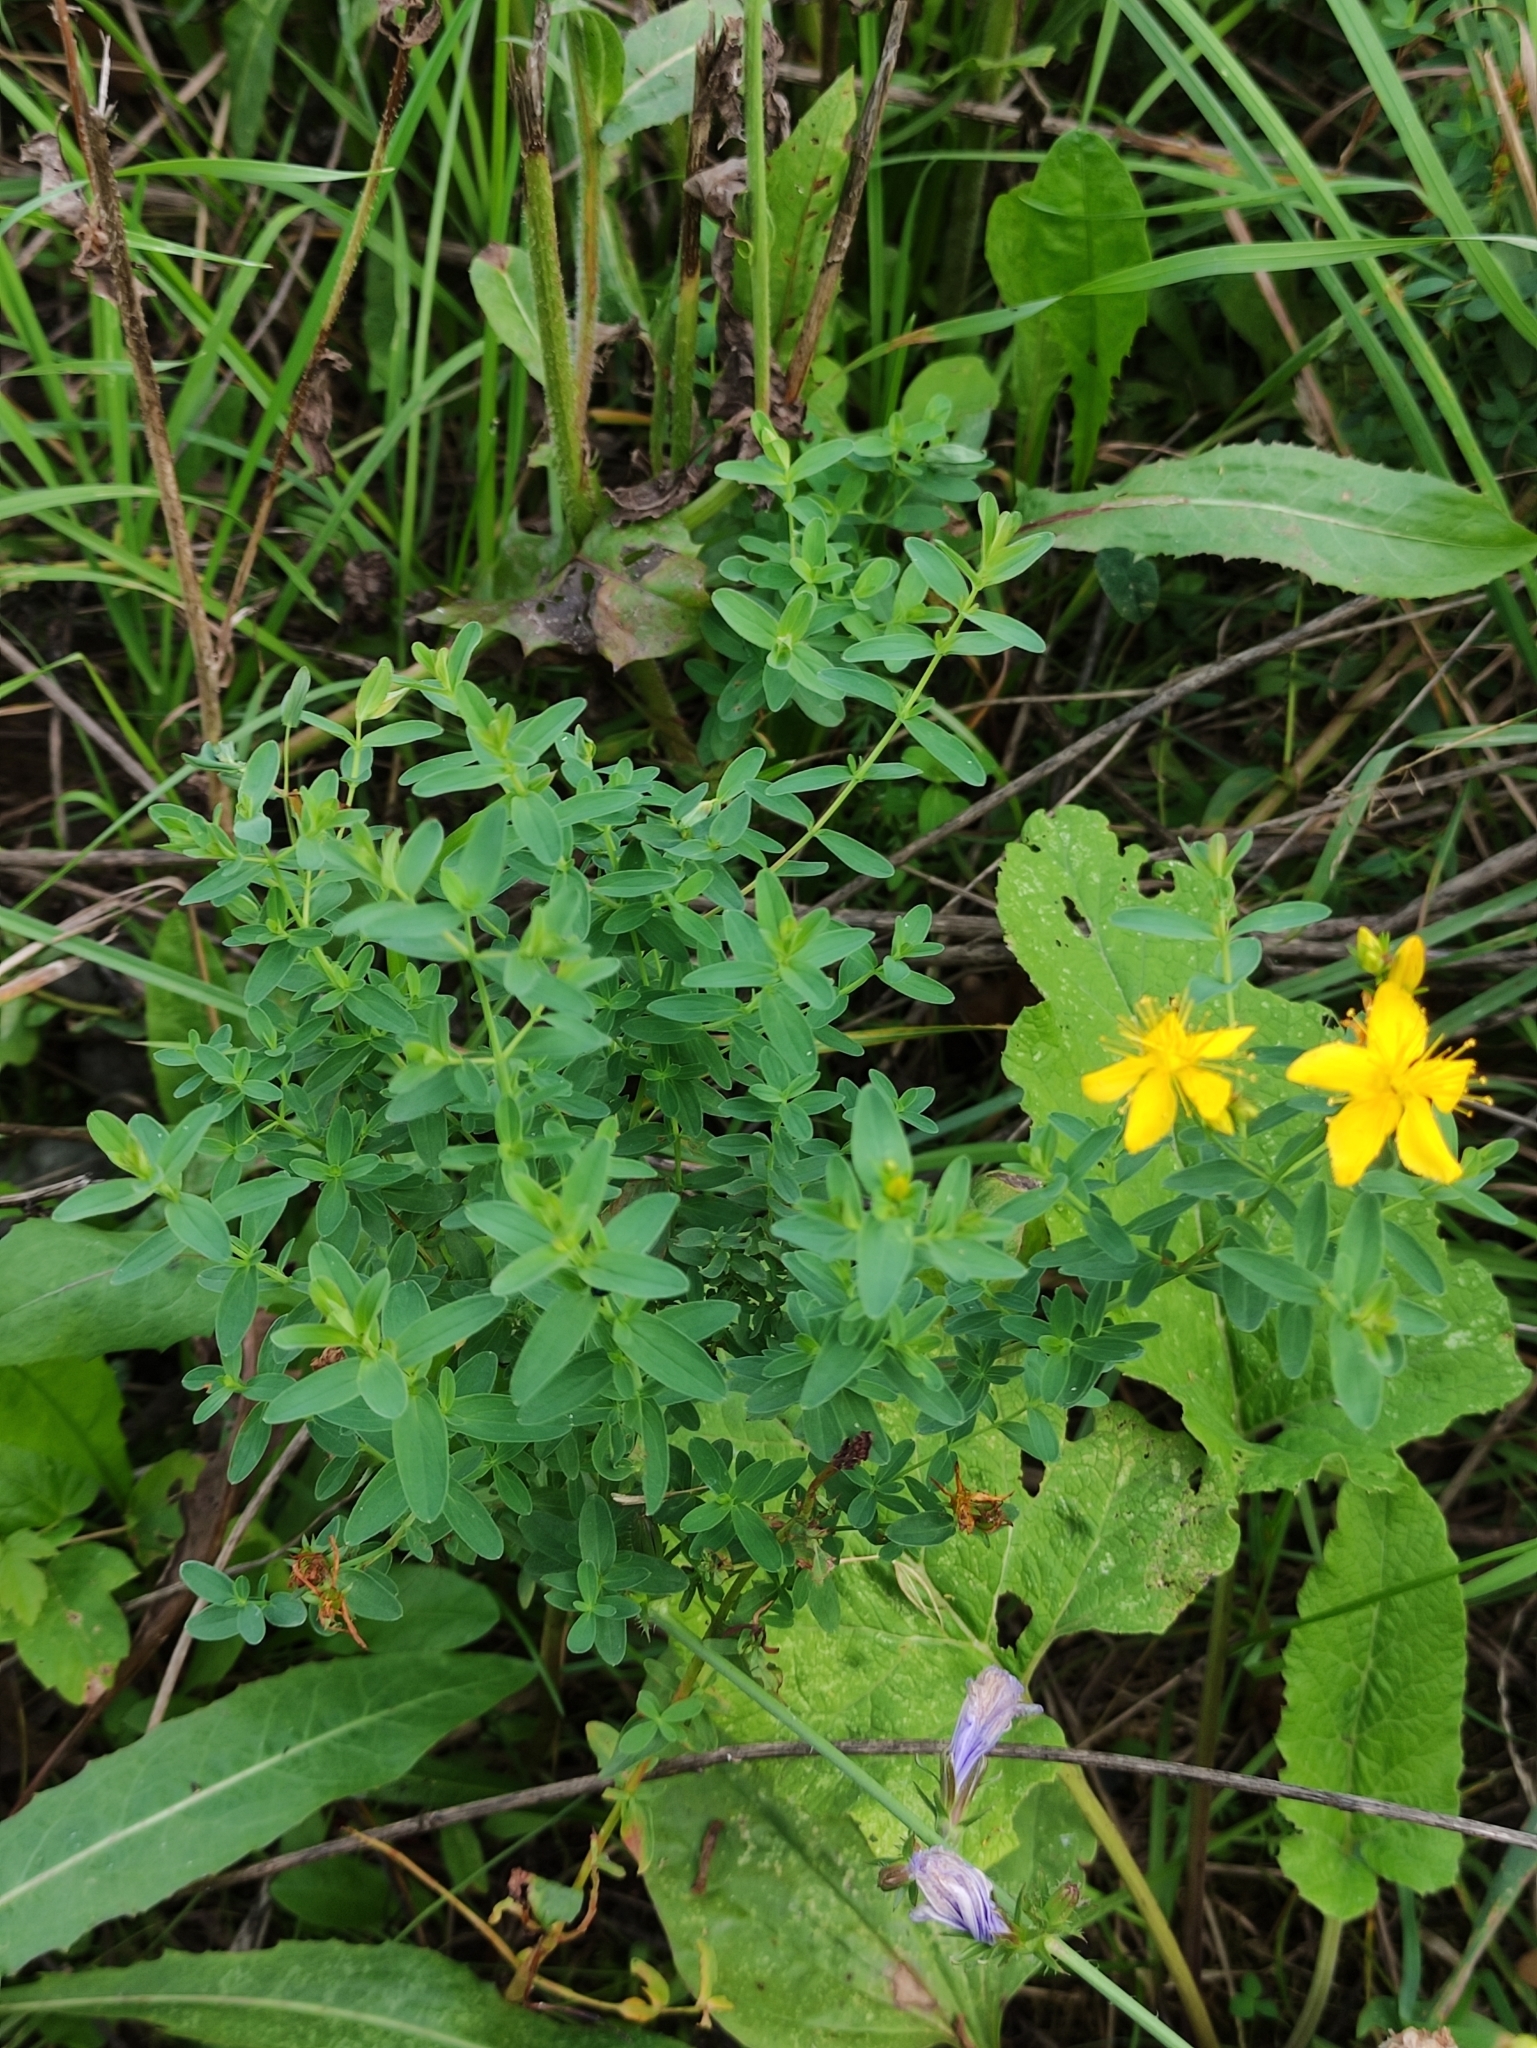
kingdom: Plantae
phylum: Tracheophyta
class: Magnoliopsida
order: Malpighiales
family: Hypericaceae
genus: Hypericum
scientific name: Hypericum perforatum
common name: Common st. johnswort
